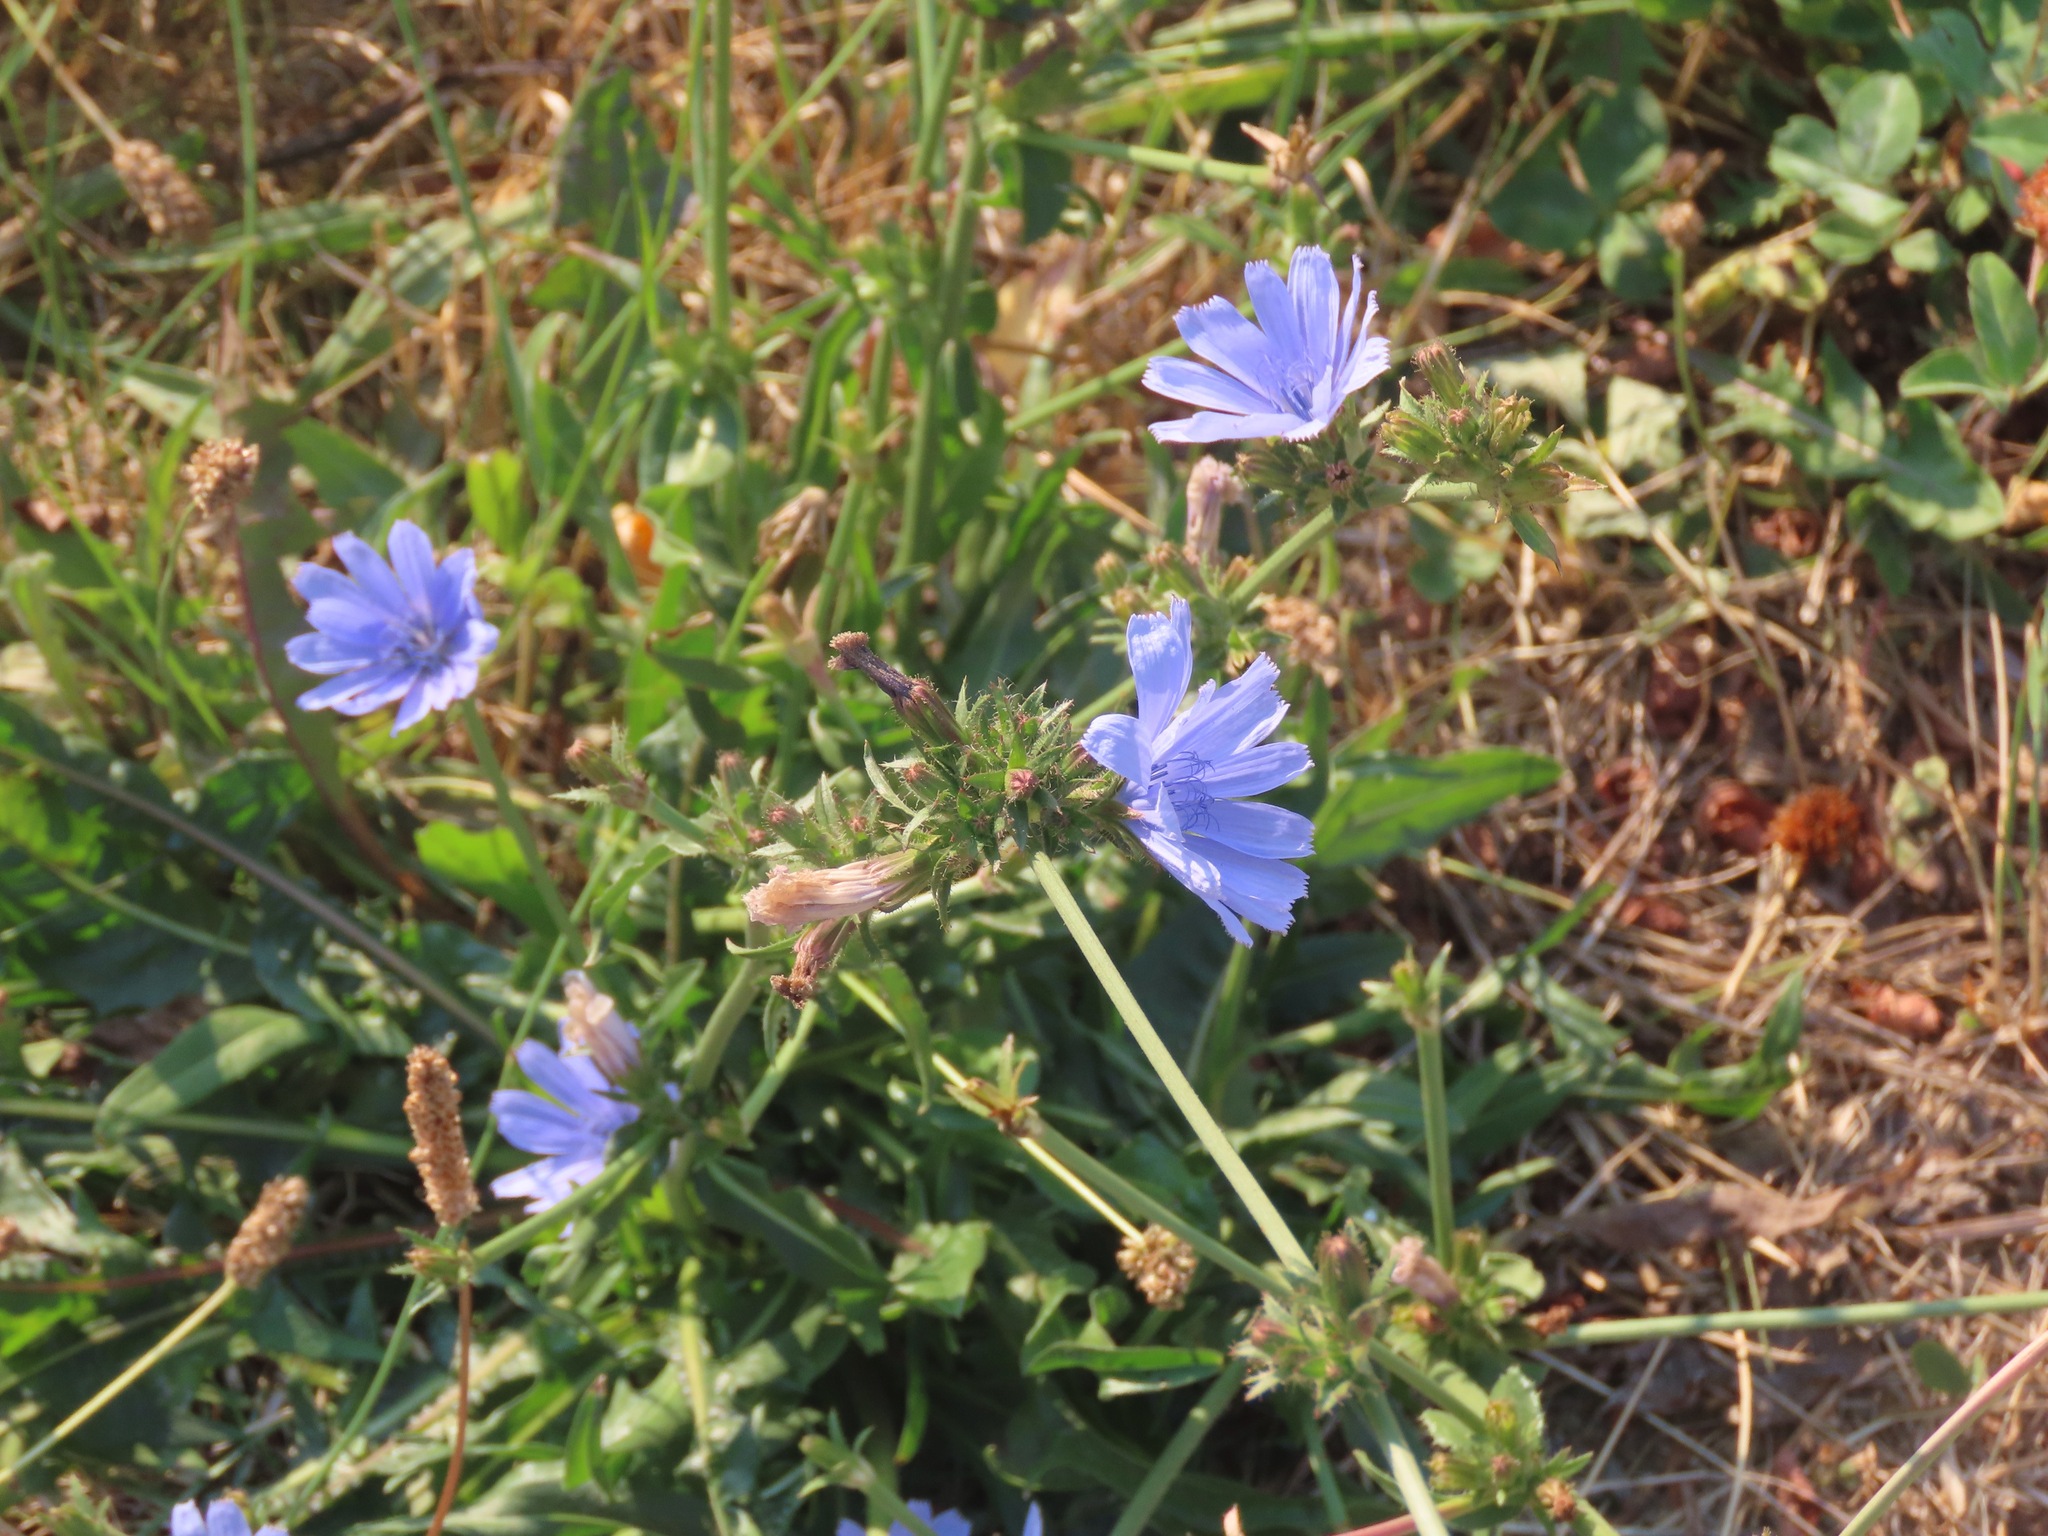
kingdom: Plantae
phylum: Tracheophyta
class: Magnoliopsida
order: Asterales
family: Asteraceae
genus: Cichorium
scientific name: Cichorium intybus
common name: Chicory
